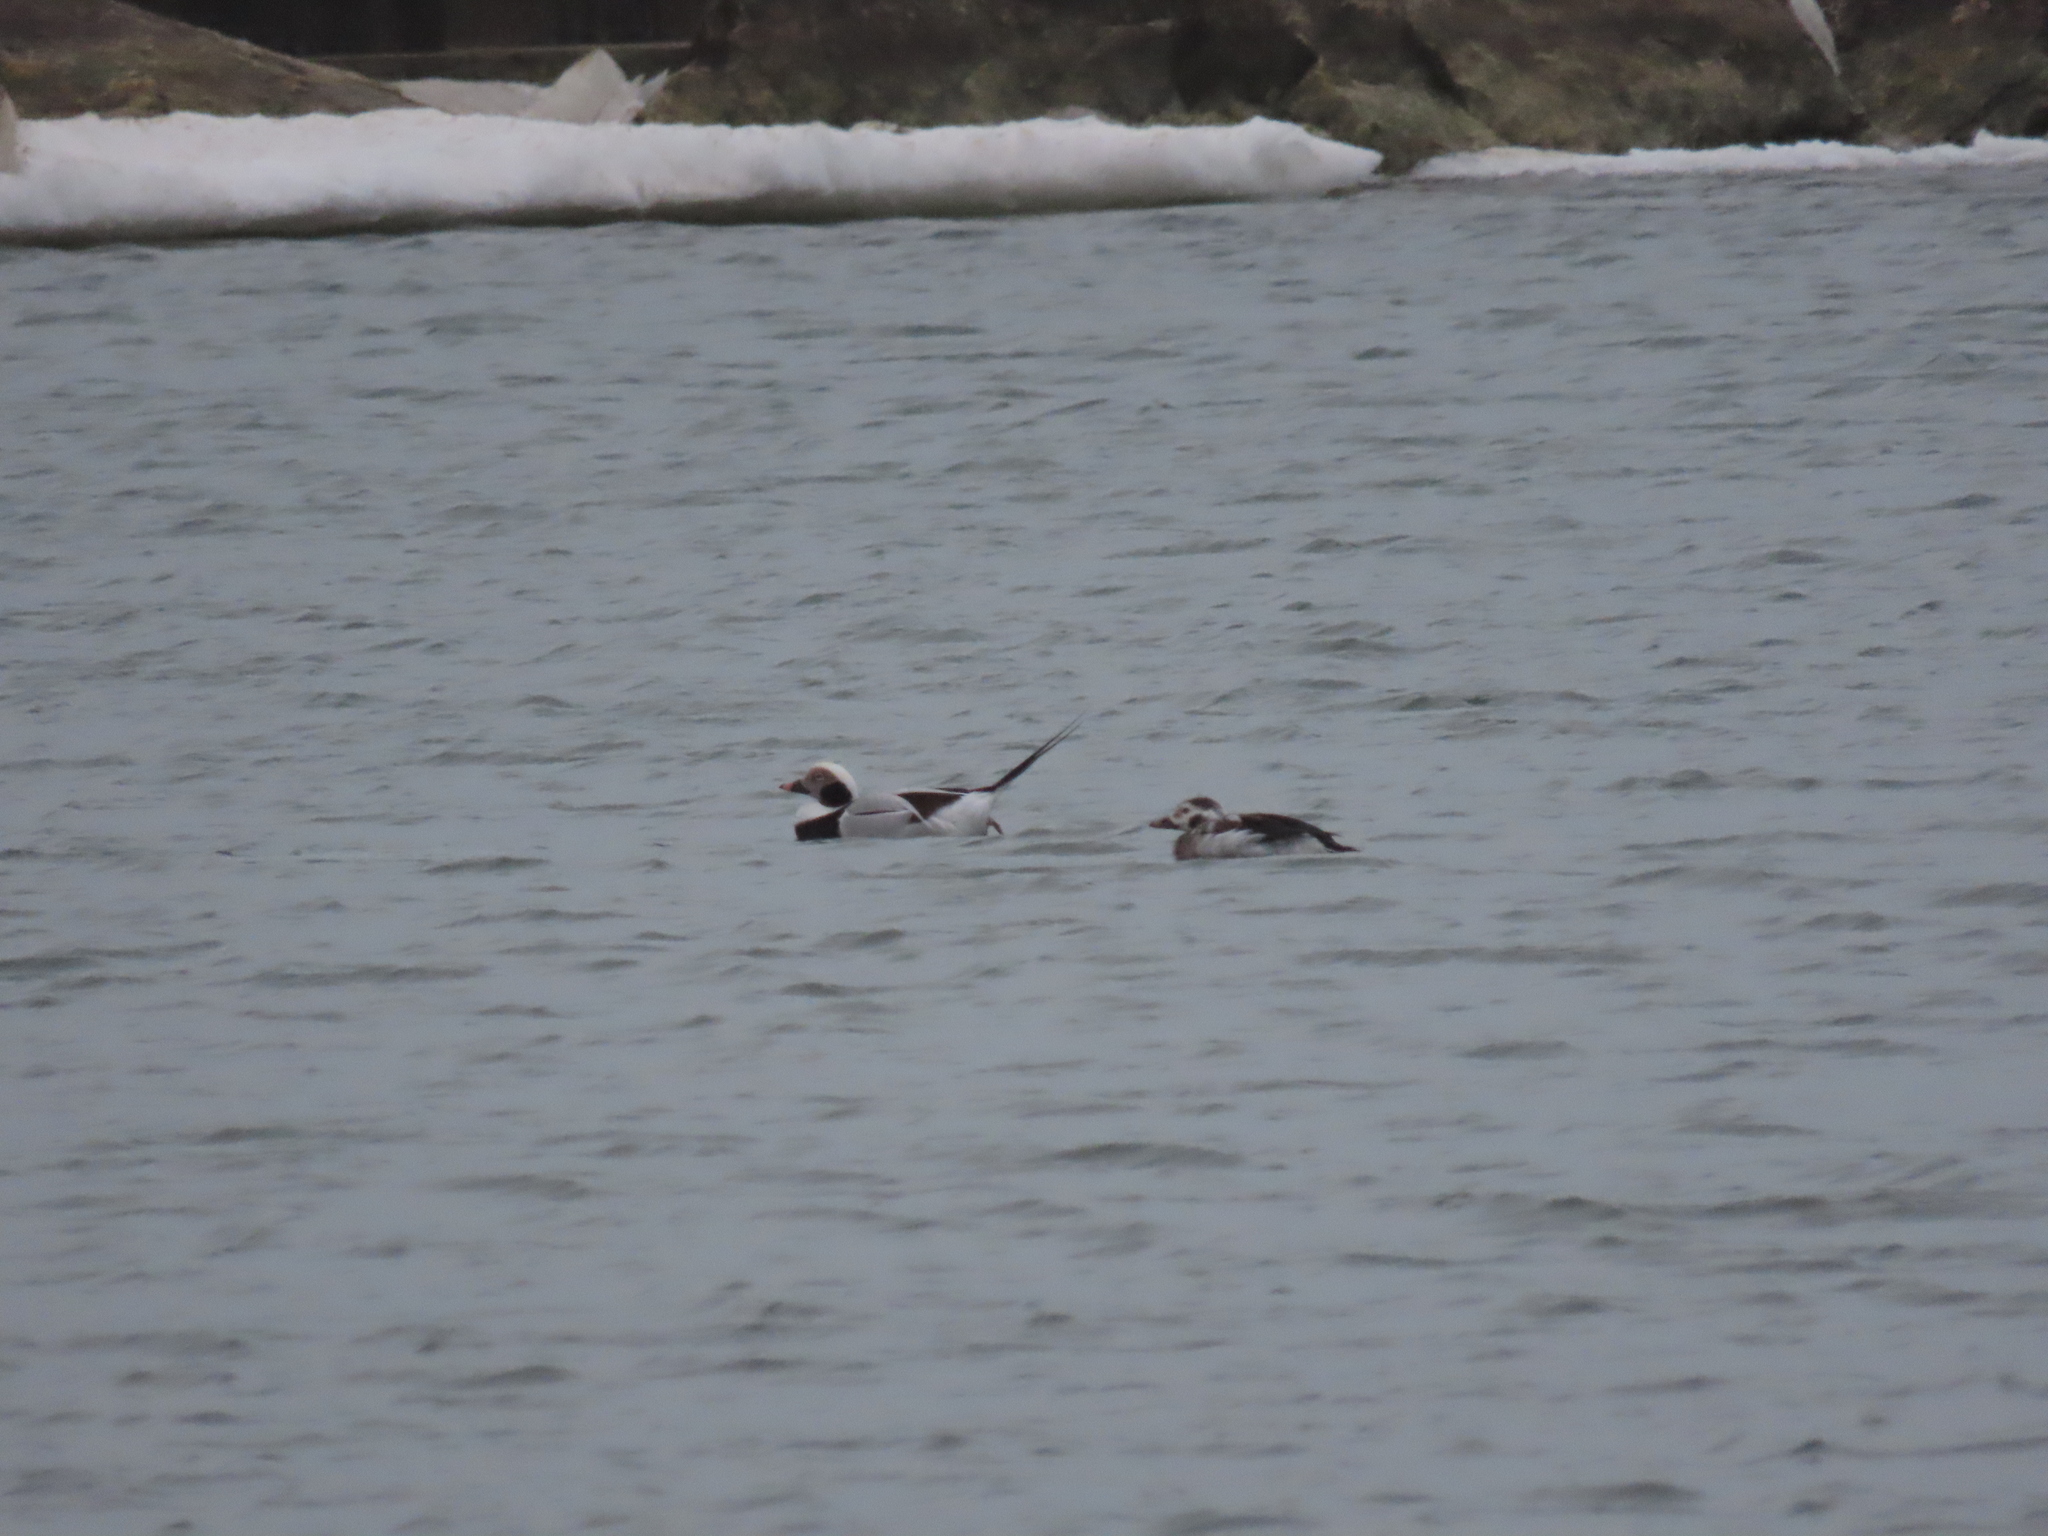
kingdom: Animalia
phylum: Chordata
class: Aves
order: Anseriformes
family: Anatidae
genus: Clangula
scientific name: Clangula hyemalis
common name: Long-tailed duck
